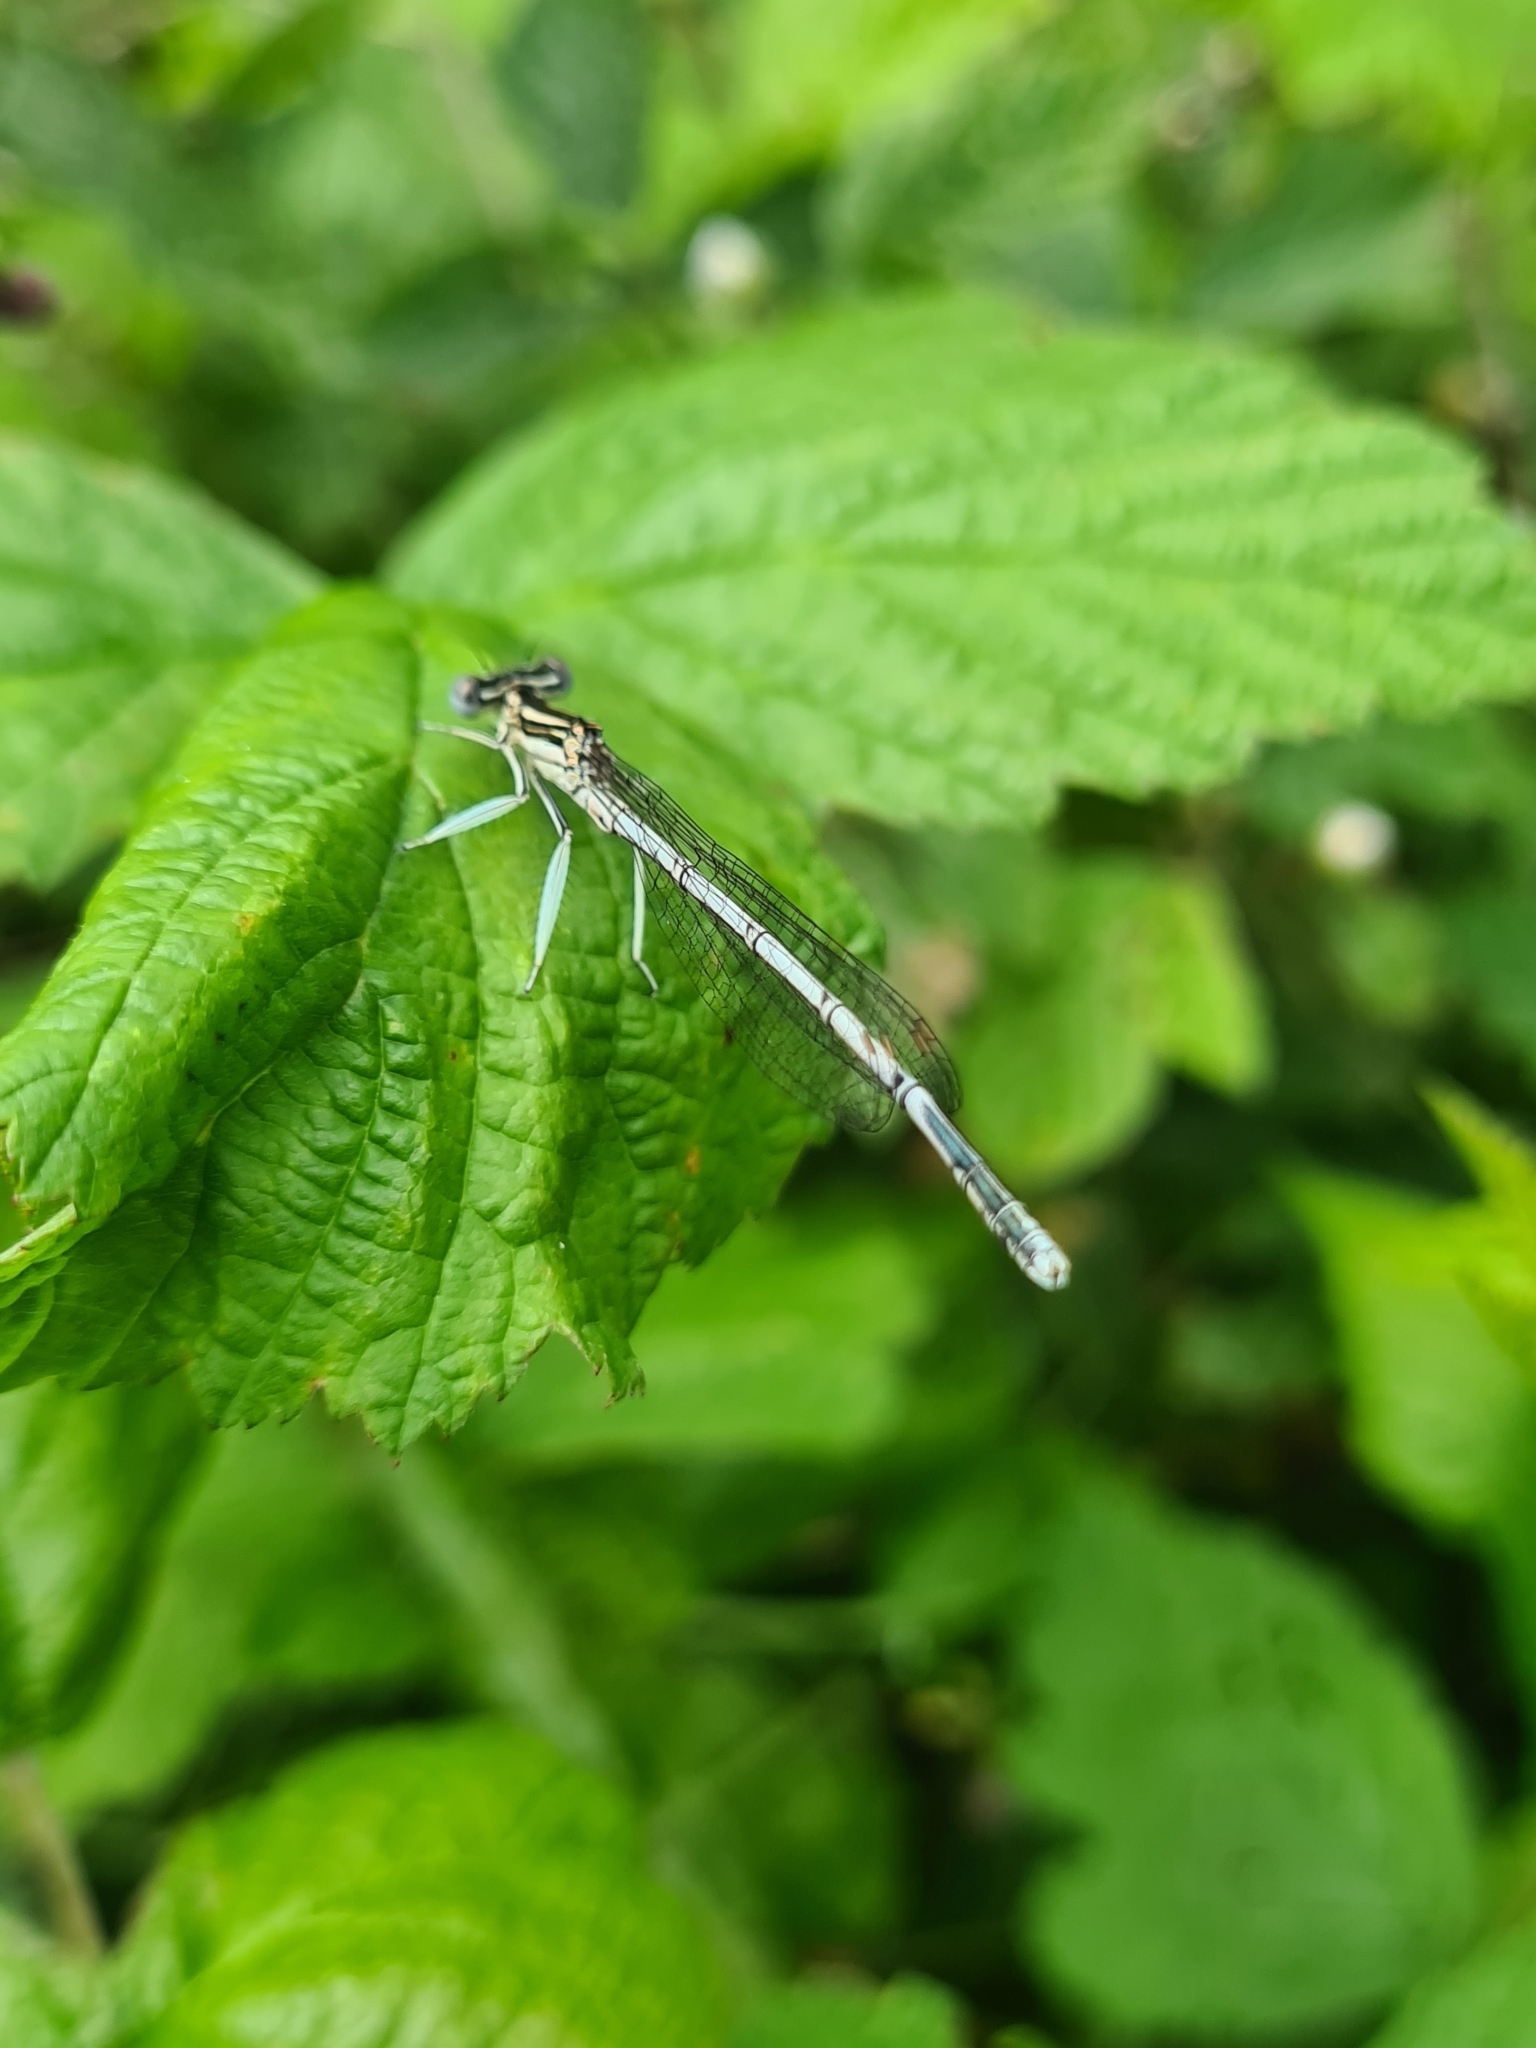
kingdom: Animalia
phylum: Arthropoda
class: Insecta
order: Odonata
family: Platycnemididae
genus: Platycnemis
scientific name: Platycnemis pennipes
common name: White-legged damselfly
